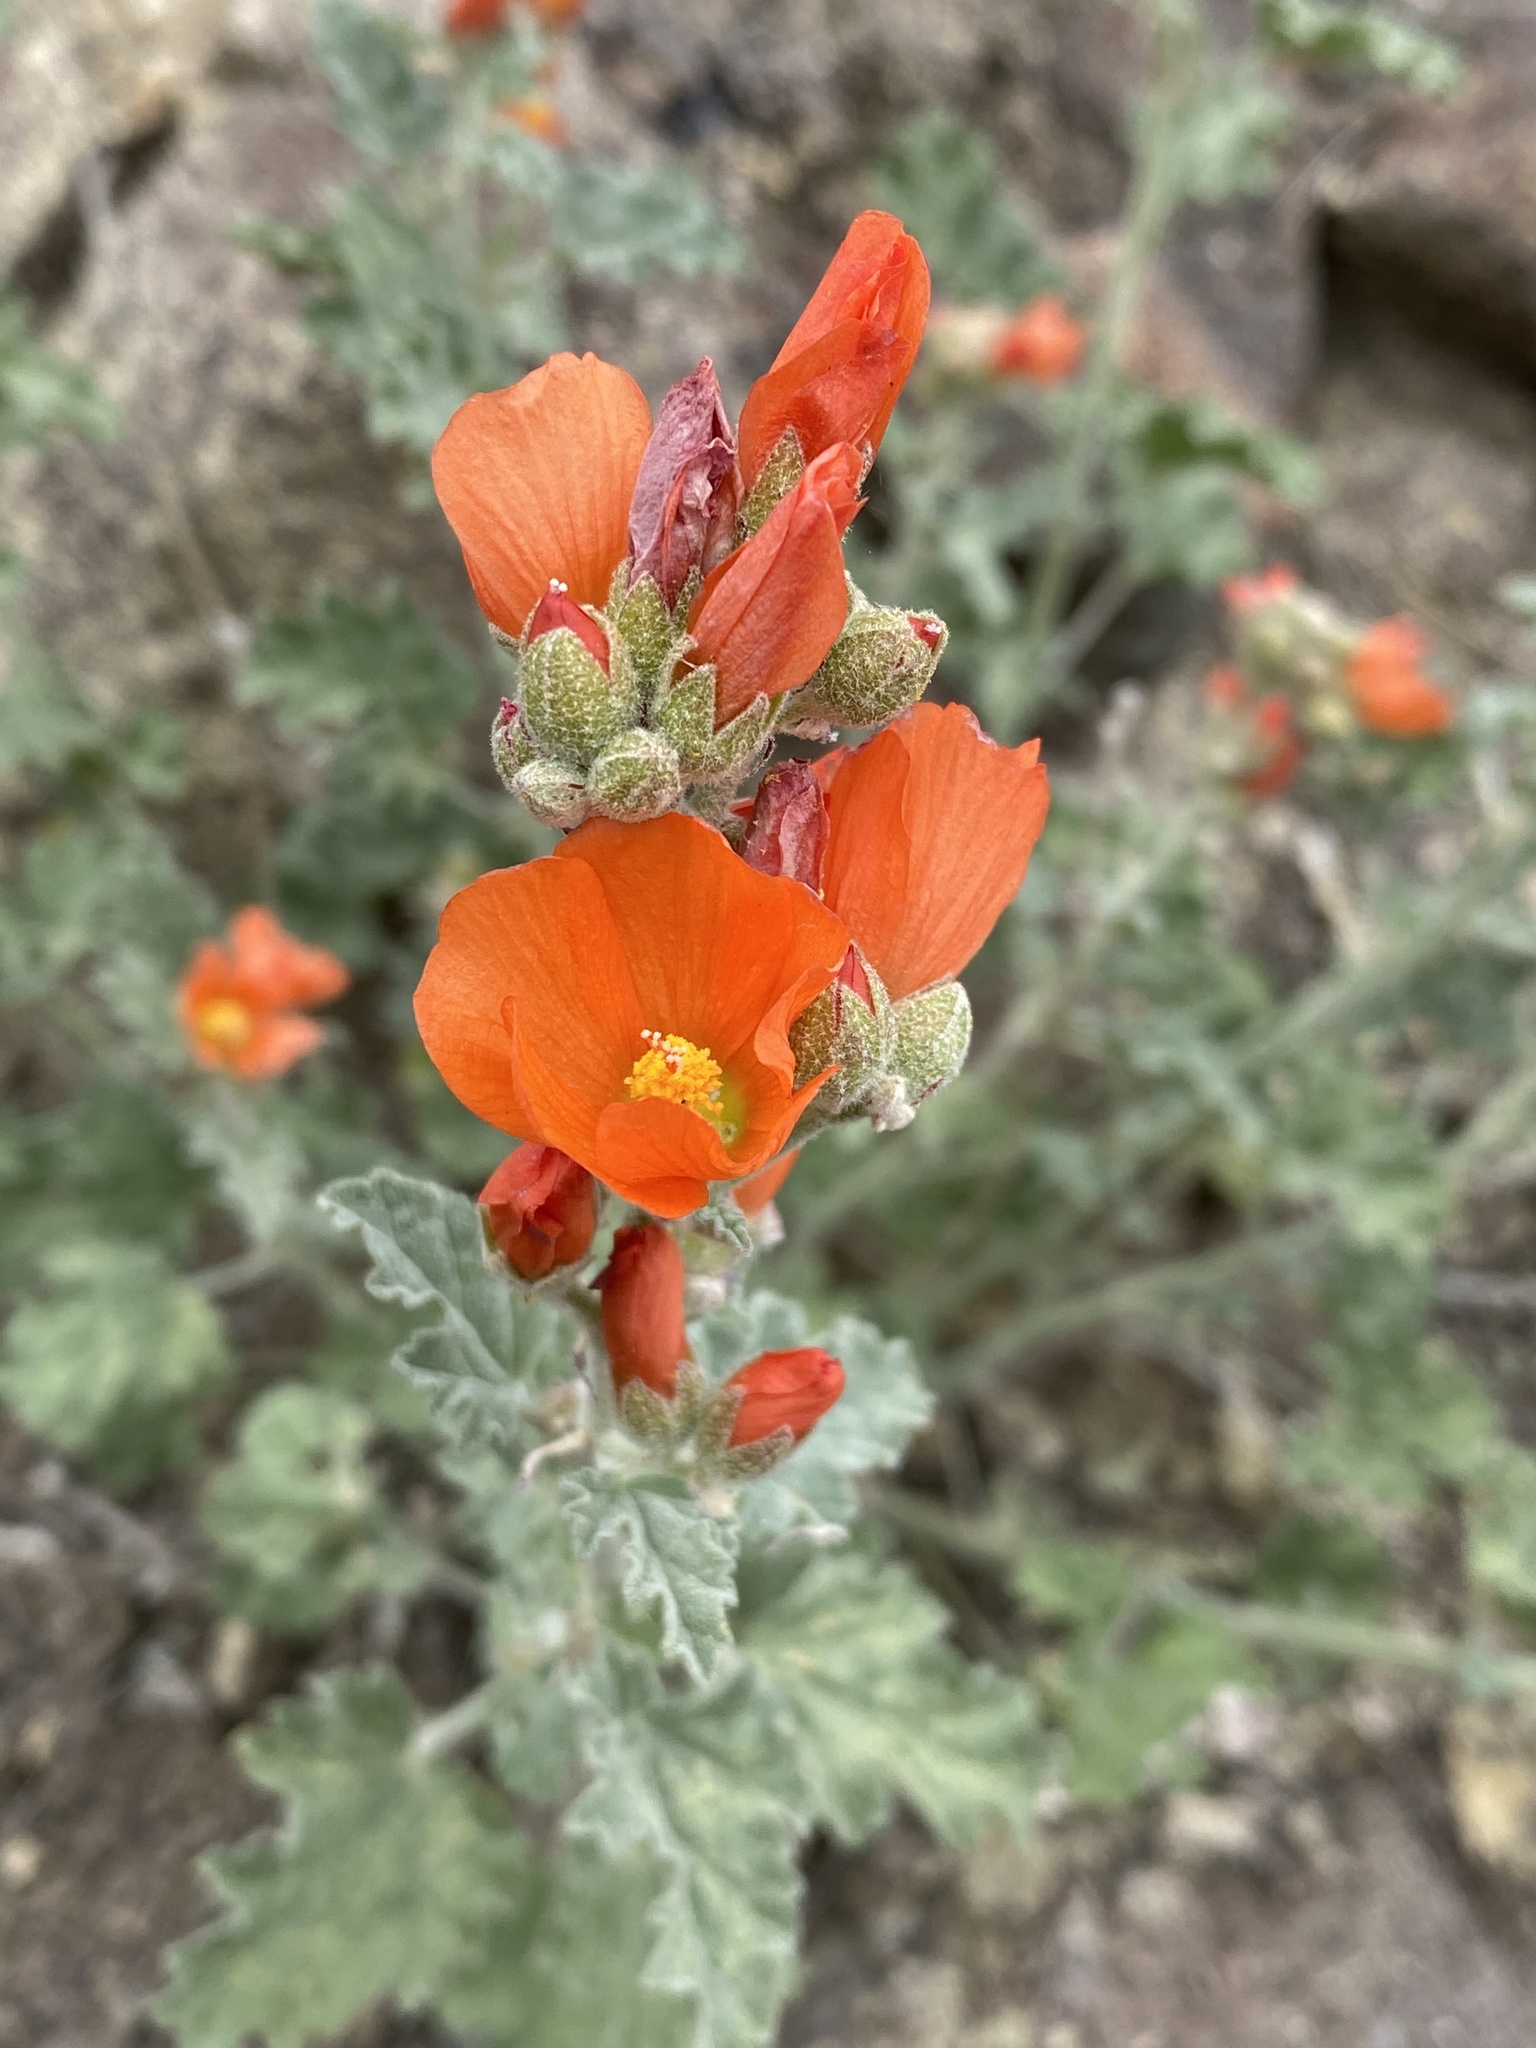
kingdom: Plantae
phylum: Tracheophyta
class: Magnoliopsida
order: Malvales
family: Malvaceae
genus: Sphaeralcea
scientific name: Sphaeralcea munroana
